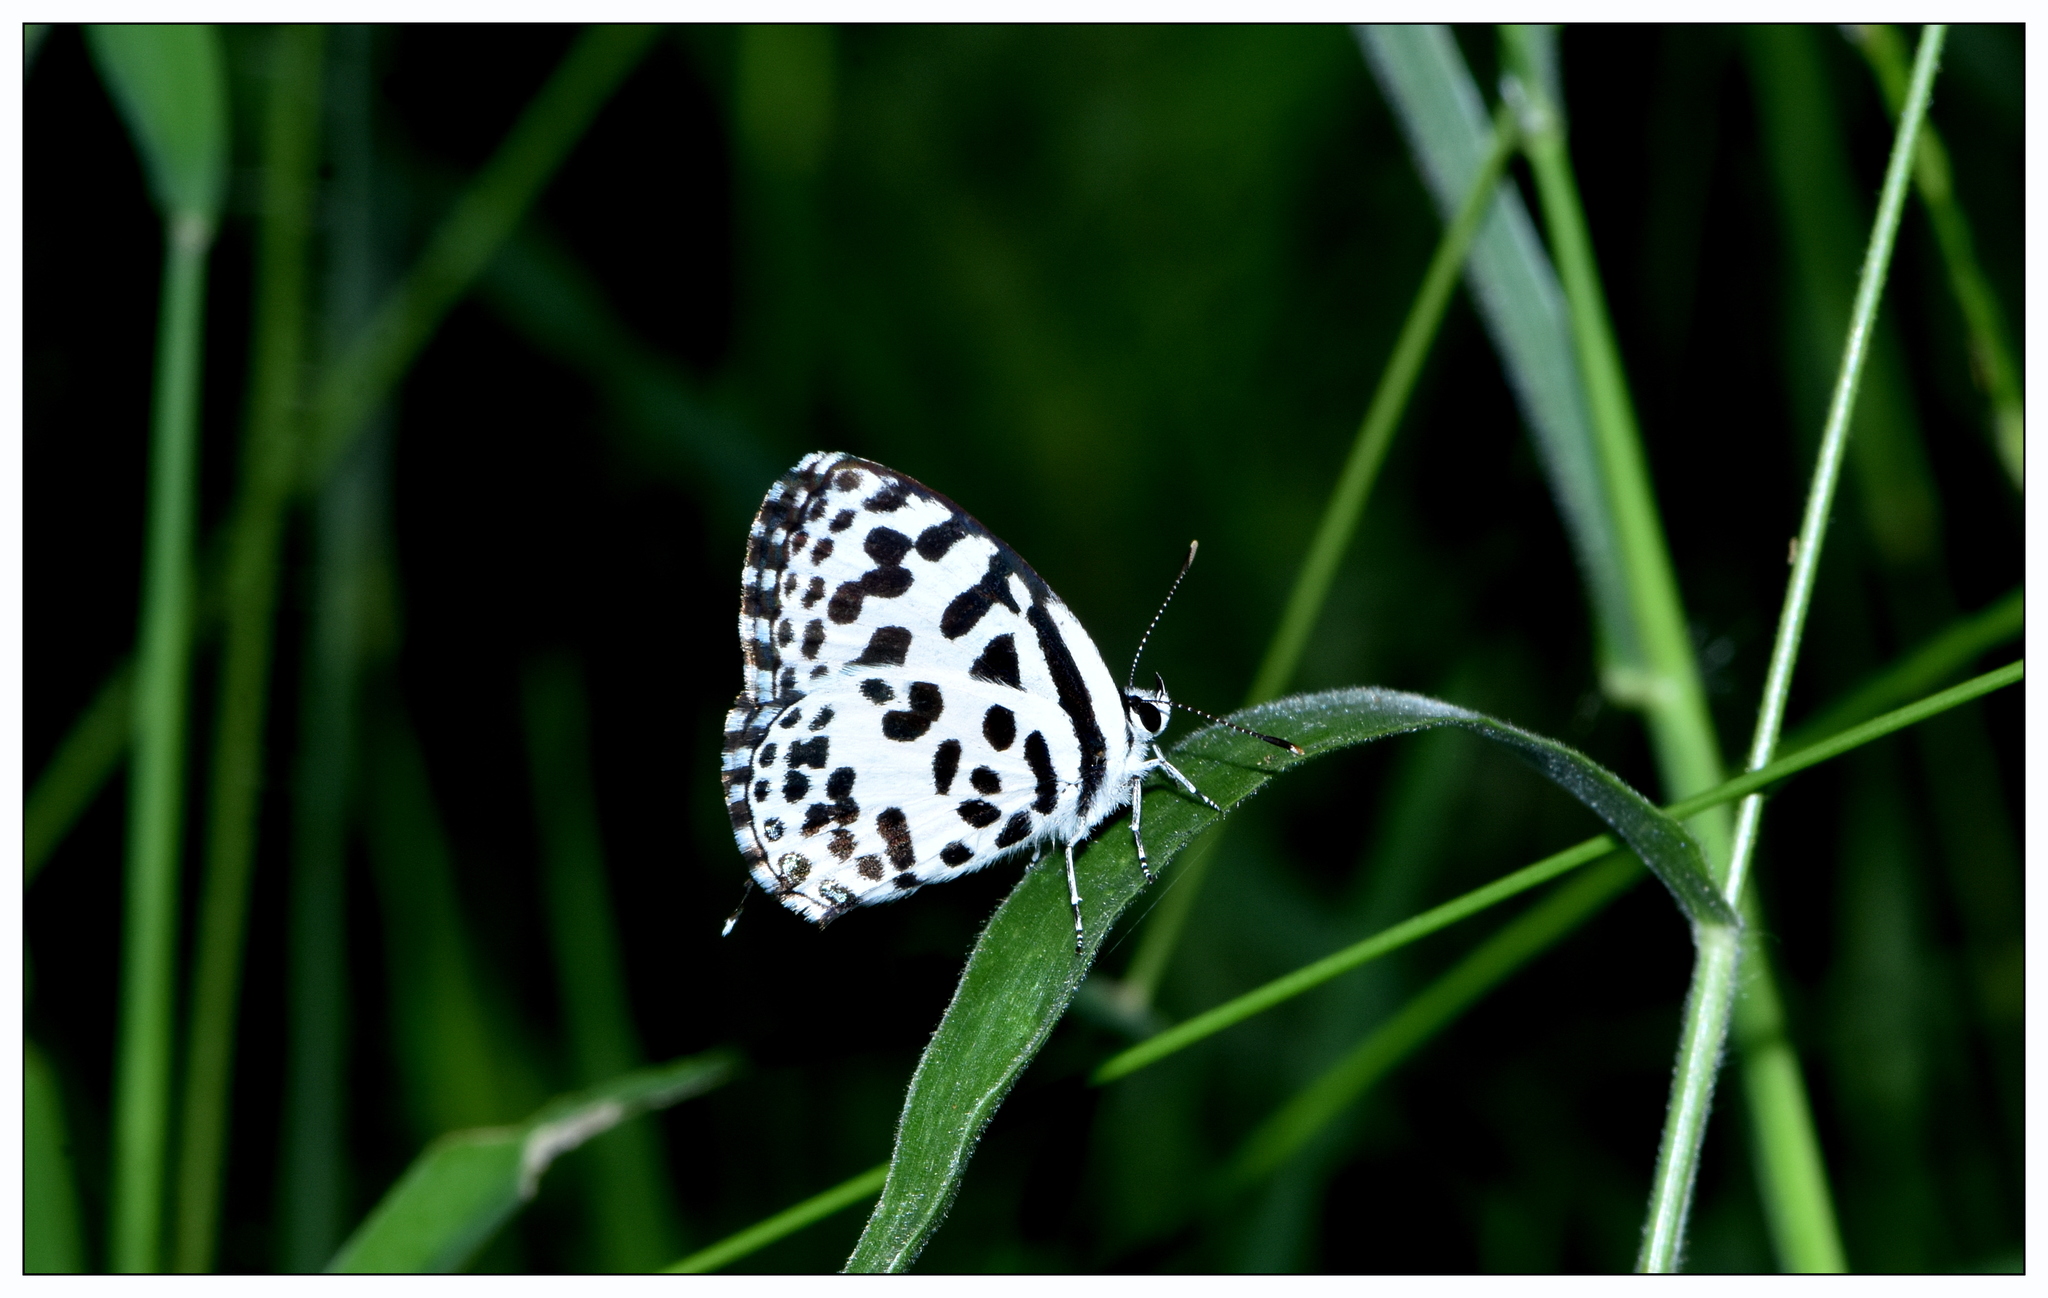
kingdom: Animalia
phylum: Arthropoda
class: Insecta
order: Lepidoptera
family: Lycaenidae
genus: Castalius
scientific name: Castalius rosimon
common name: Common pierrot
